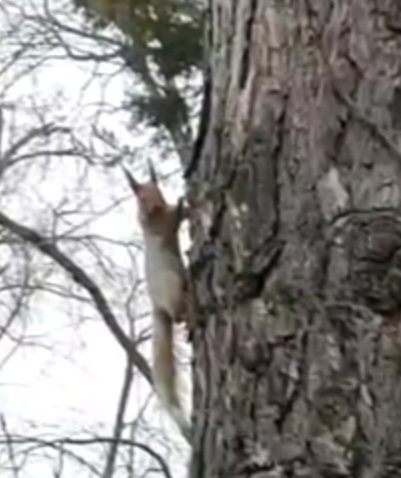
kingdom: Animalia
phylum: Chordata
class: Mammalia
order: Rodentia
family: Sciuridae
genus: Sciurus
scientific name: Sciurus vulgaris
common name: Eurasian red squirrel
